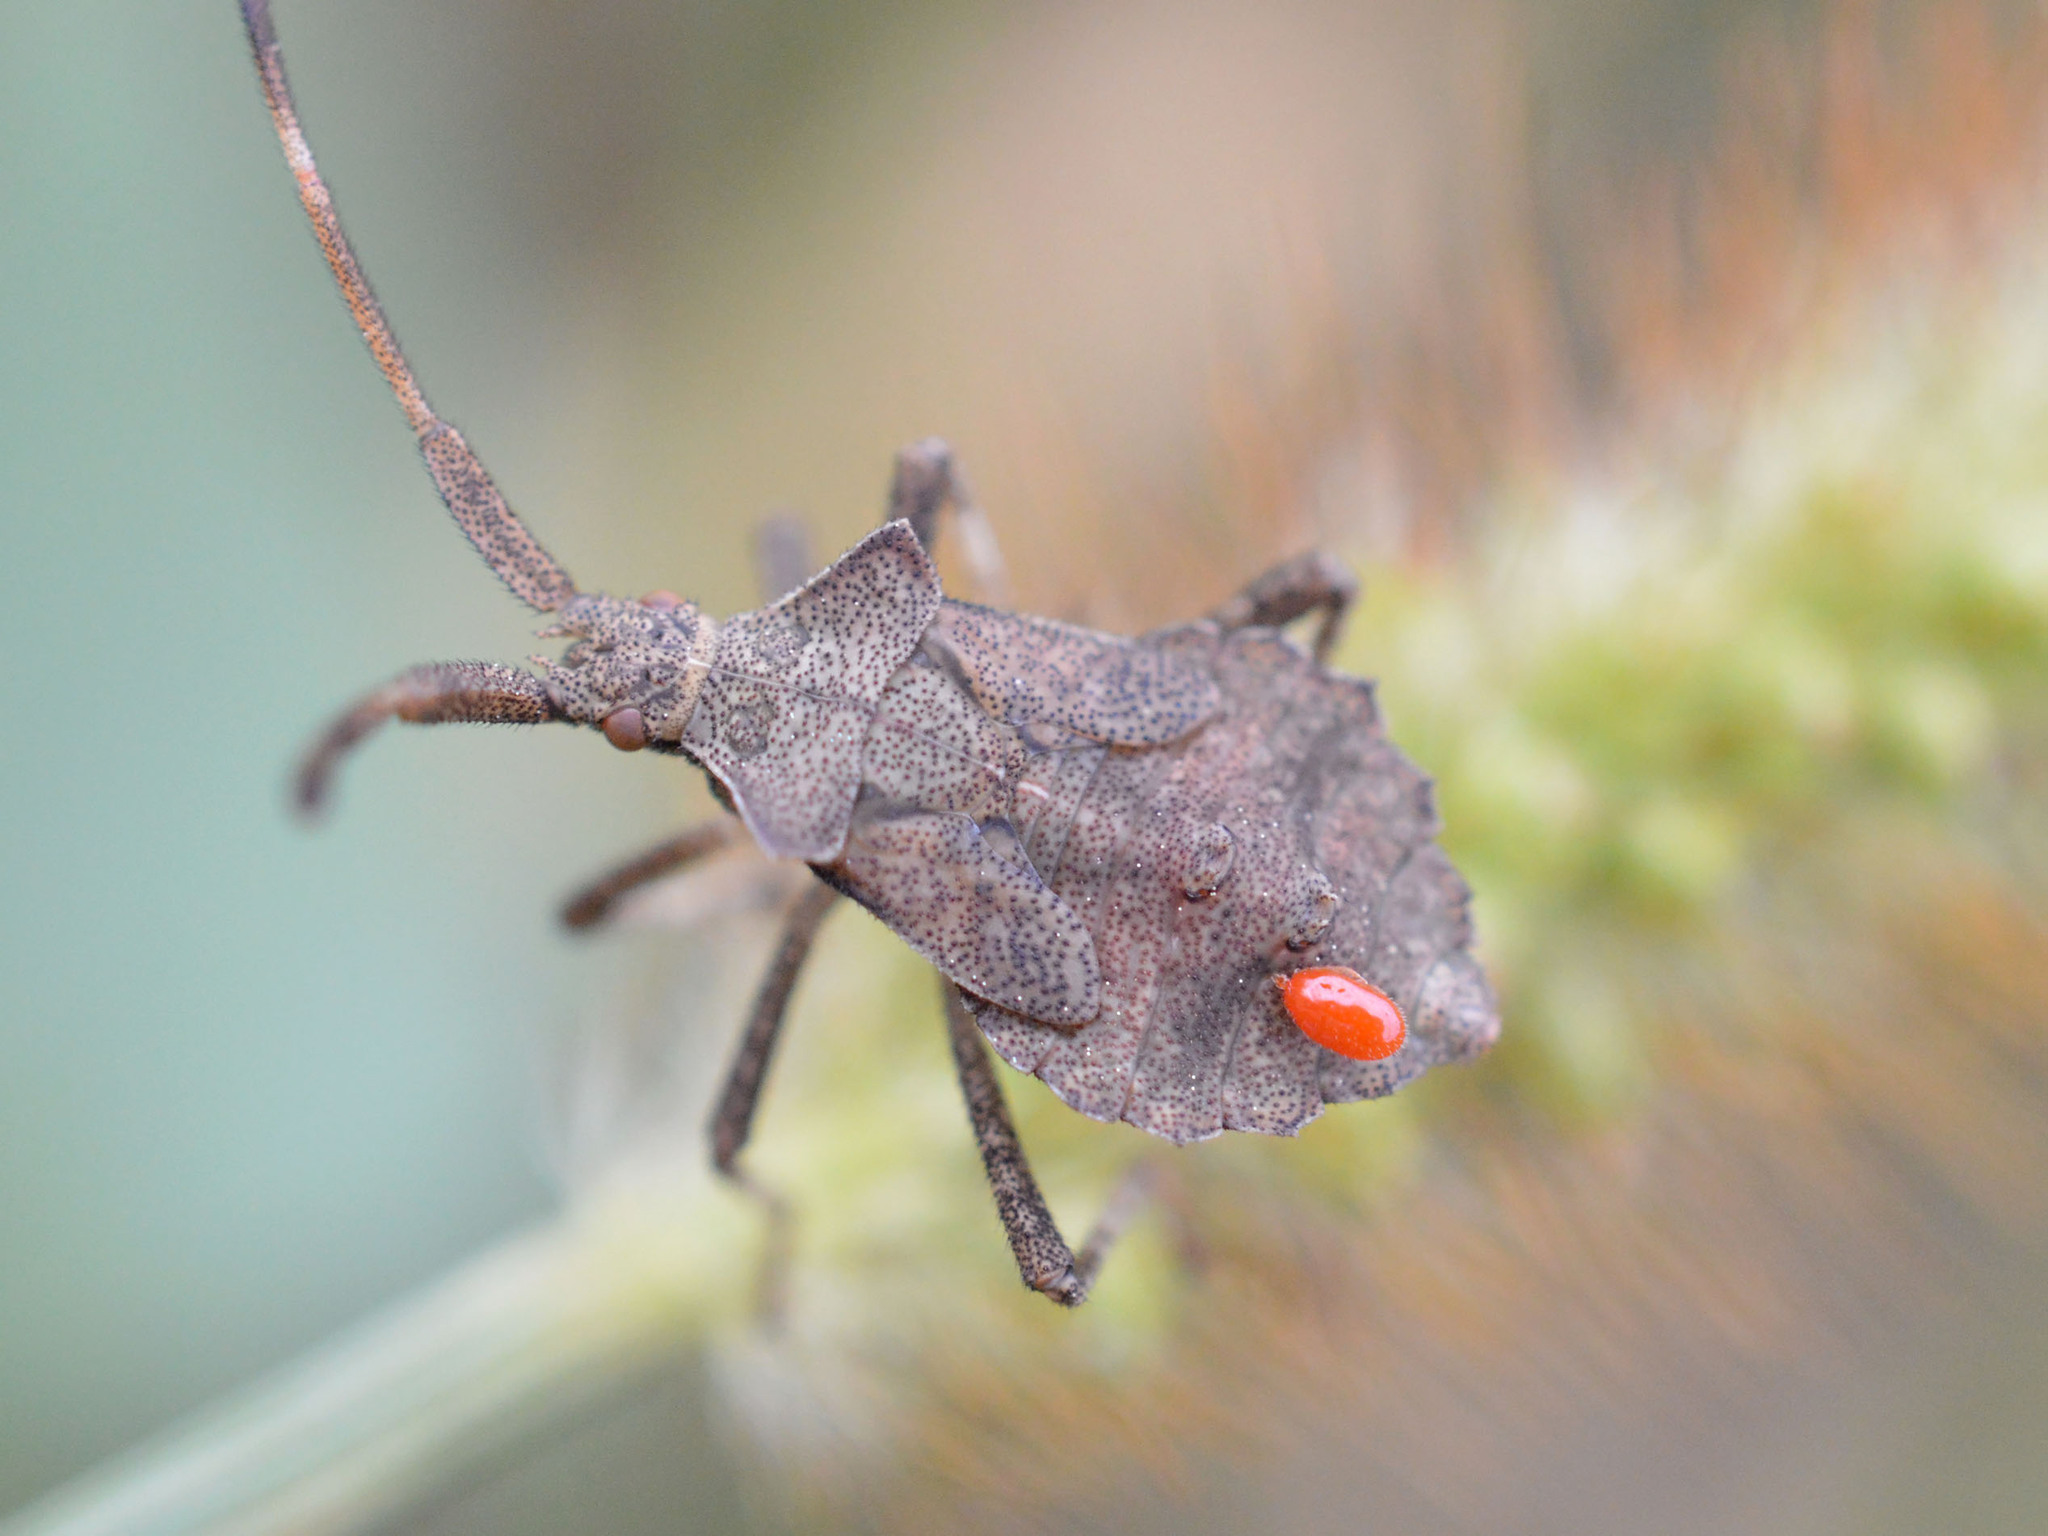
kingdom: Animalia
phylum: Arthropoda
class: Insecta
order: Hemiptera
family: Coreidae
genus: Coreus
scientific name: Coreus marginatus
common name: Dock bug
